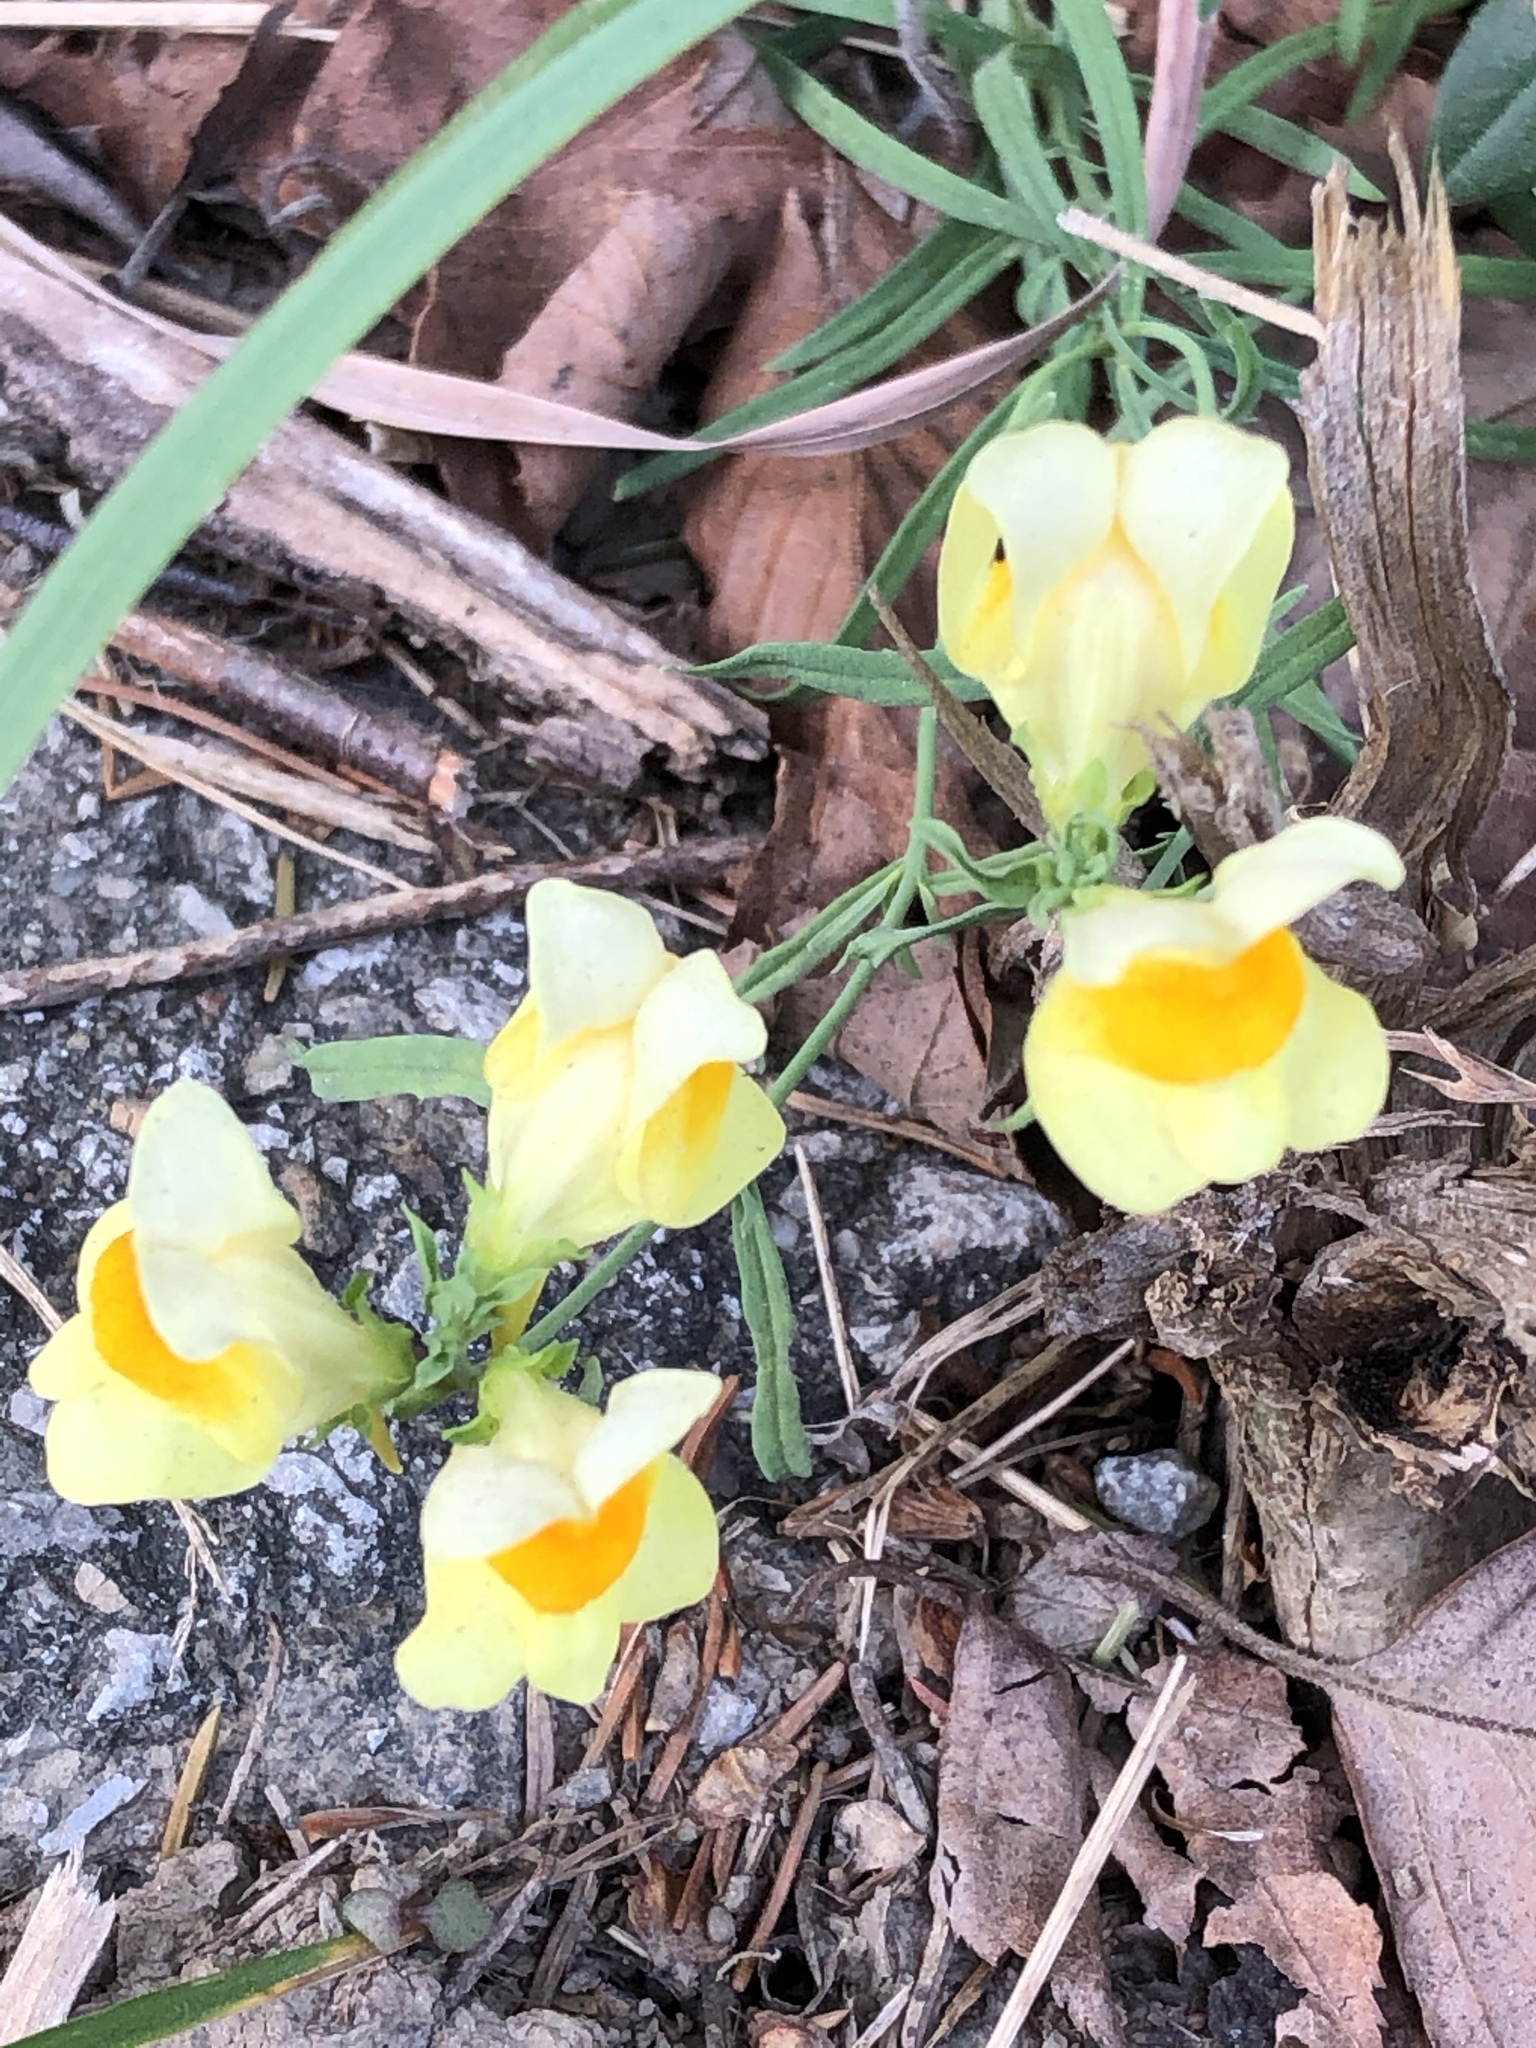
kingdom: Plantae
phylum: Tracheophyta
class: Magnoliopsida
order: Lamiales
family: Plantaginaceae
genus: Linaria
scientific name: Linaria vulgaris
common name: Butter and eggs
